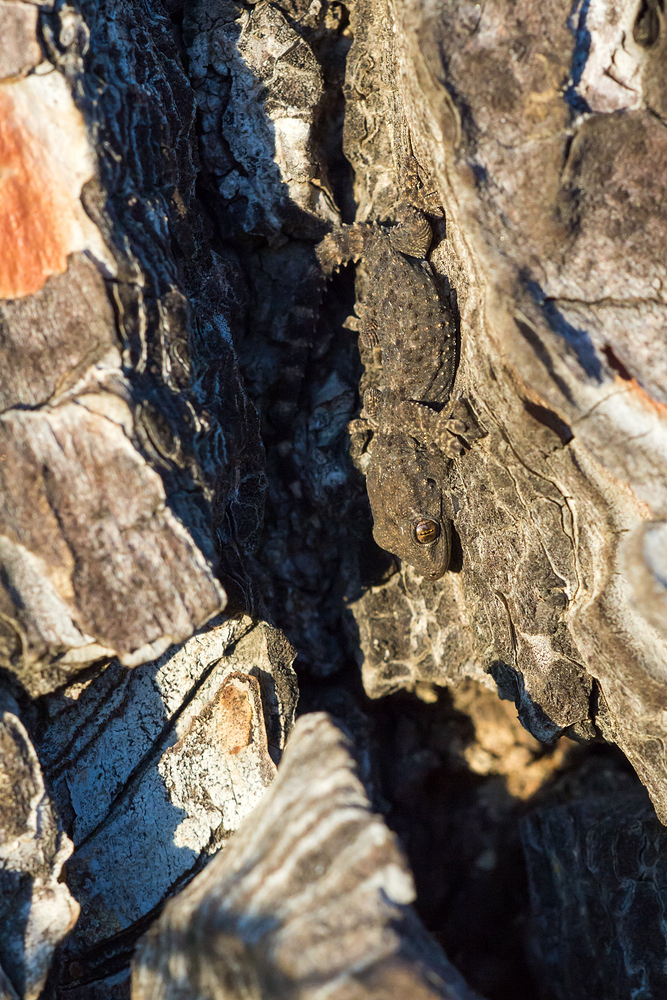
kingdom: Animalia
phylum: Chordata
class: Squamata
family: Phyllodactylidae
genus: Tarentola
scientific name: Tarentola mauritanica
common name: Moorish gecko
